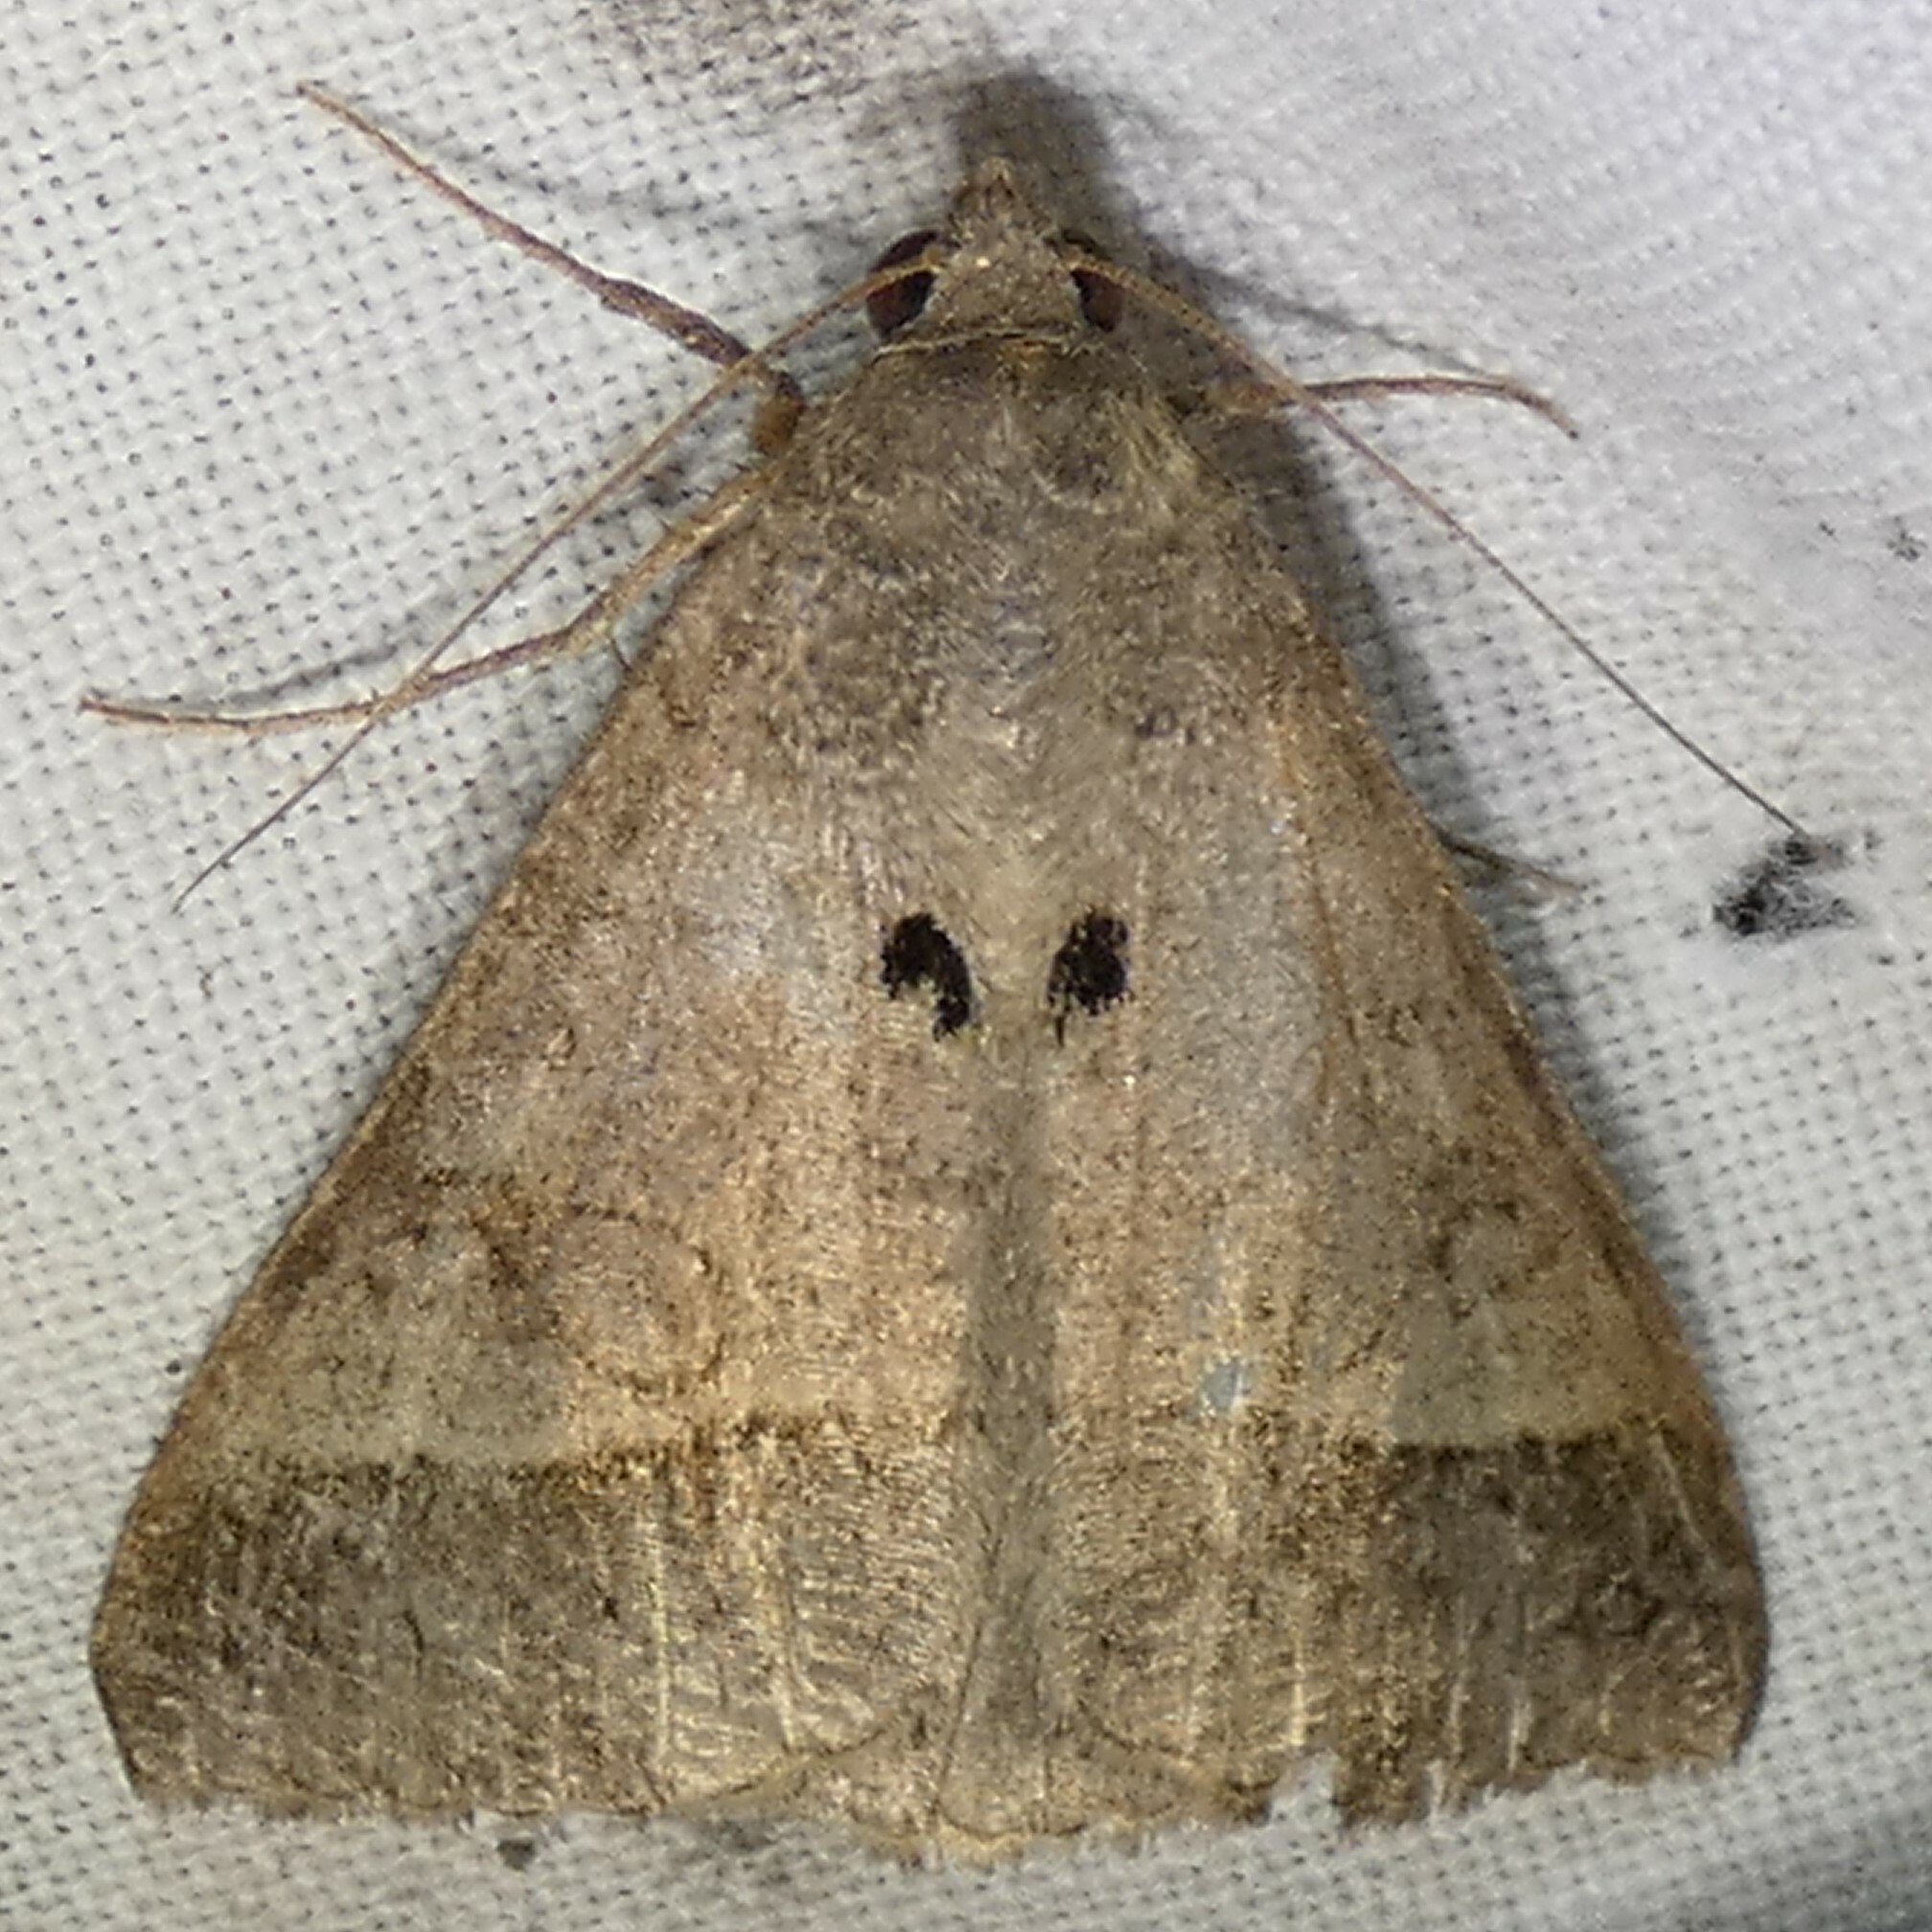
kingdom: Animalia
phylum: Arthropoda
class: Insecta
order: Lepidoptera
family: Erebidae
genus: Mocis
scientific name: Mocis latipes
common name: Striped grass looper
